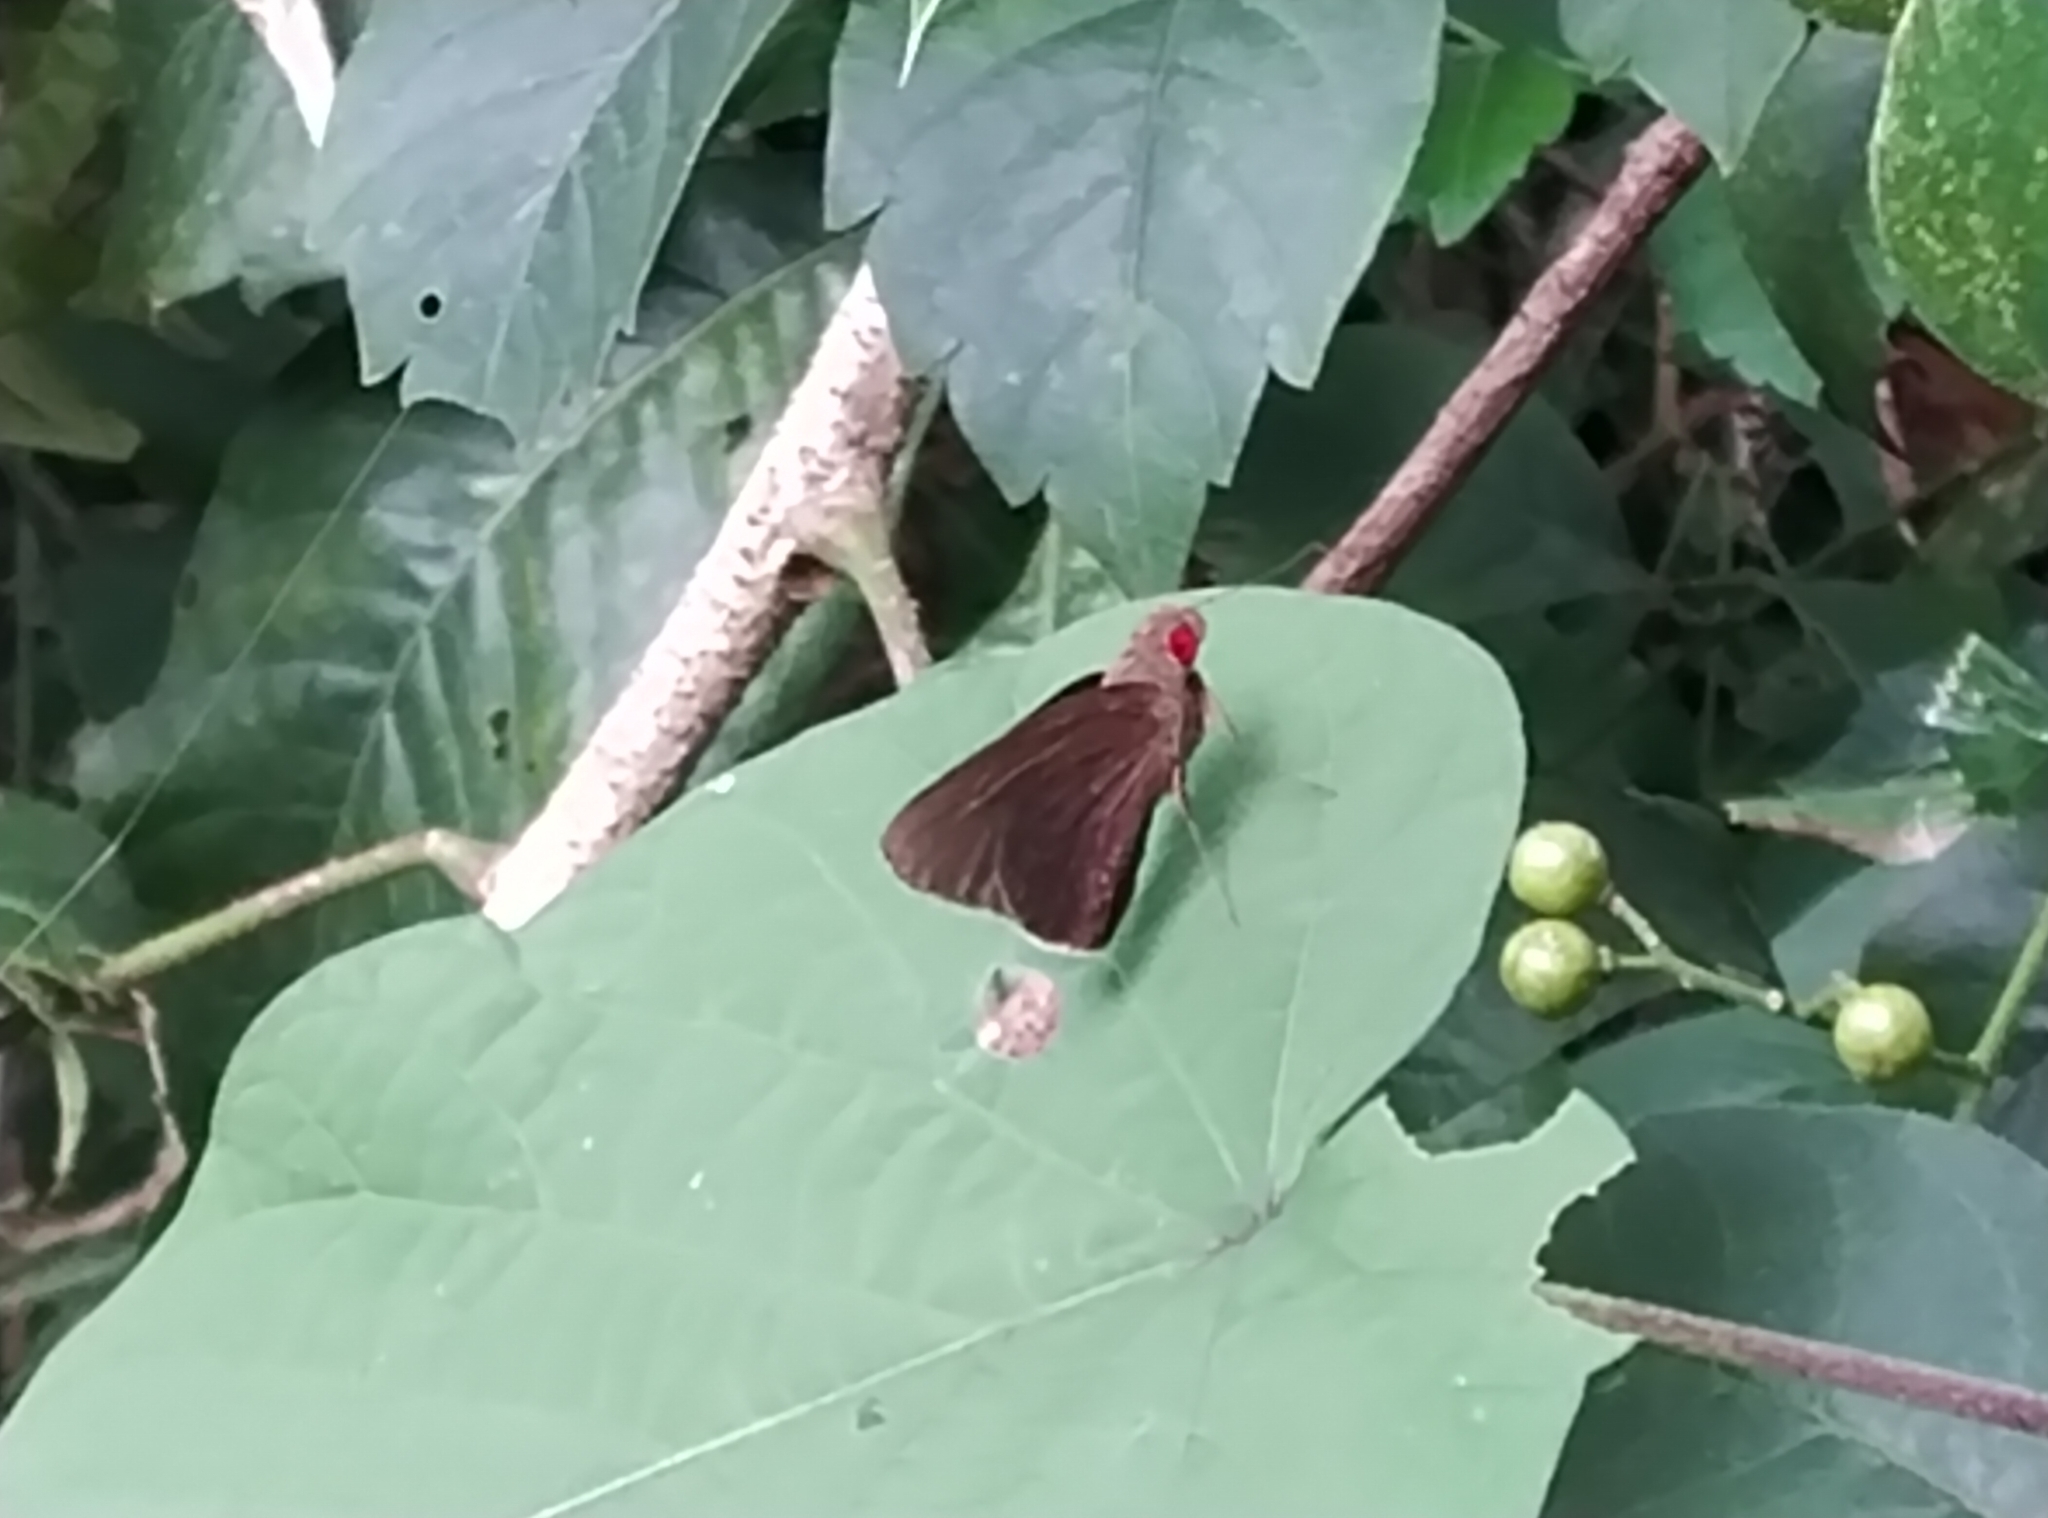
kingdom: Animalia
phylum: Arthropoda
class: Insecta
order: Lepidoptera
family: Hesperiidae
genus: Matapa
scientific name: Matapa aria
